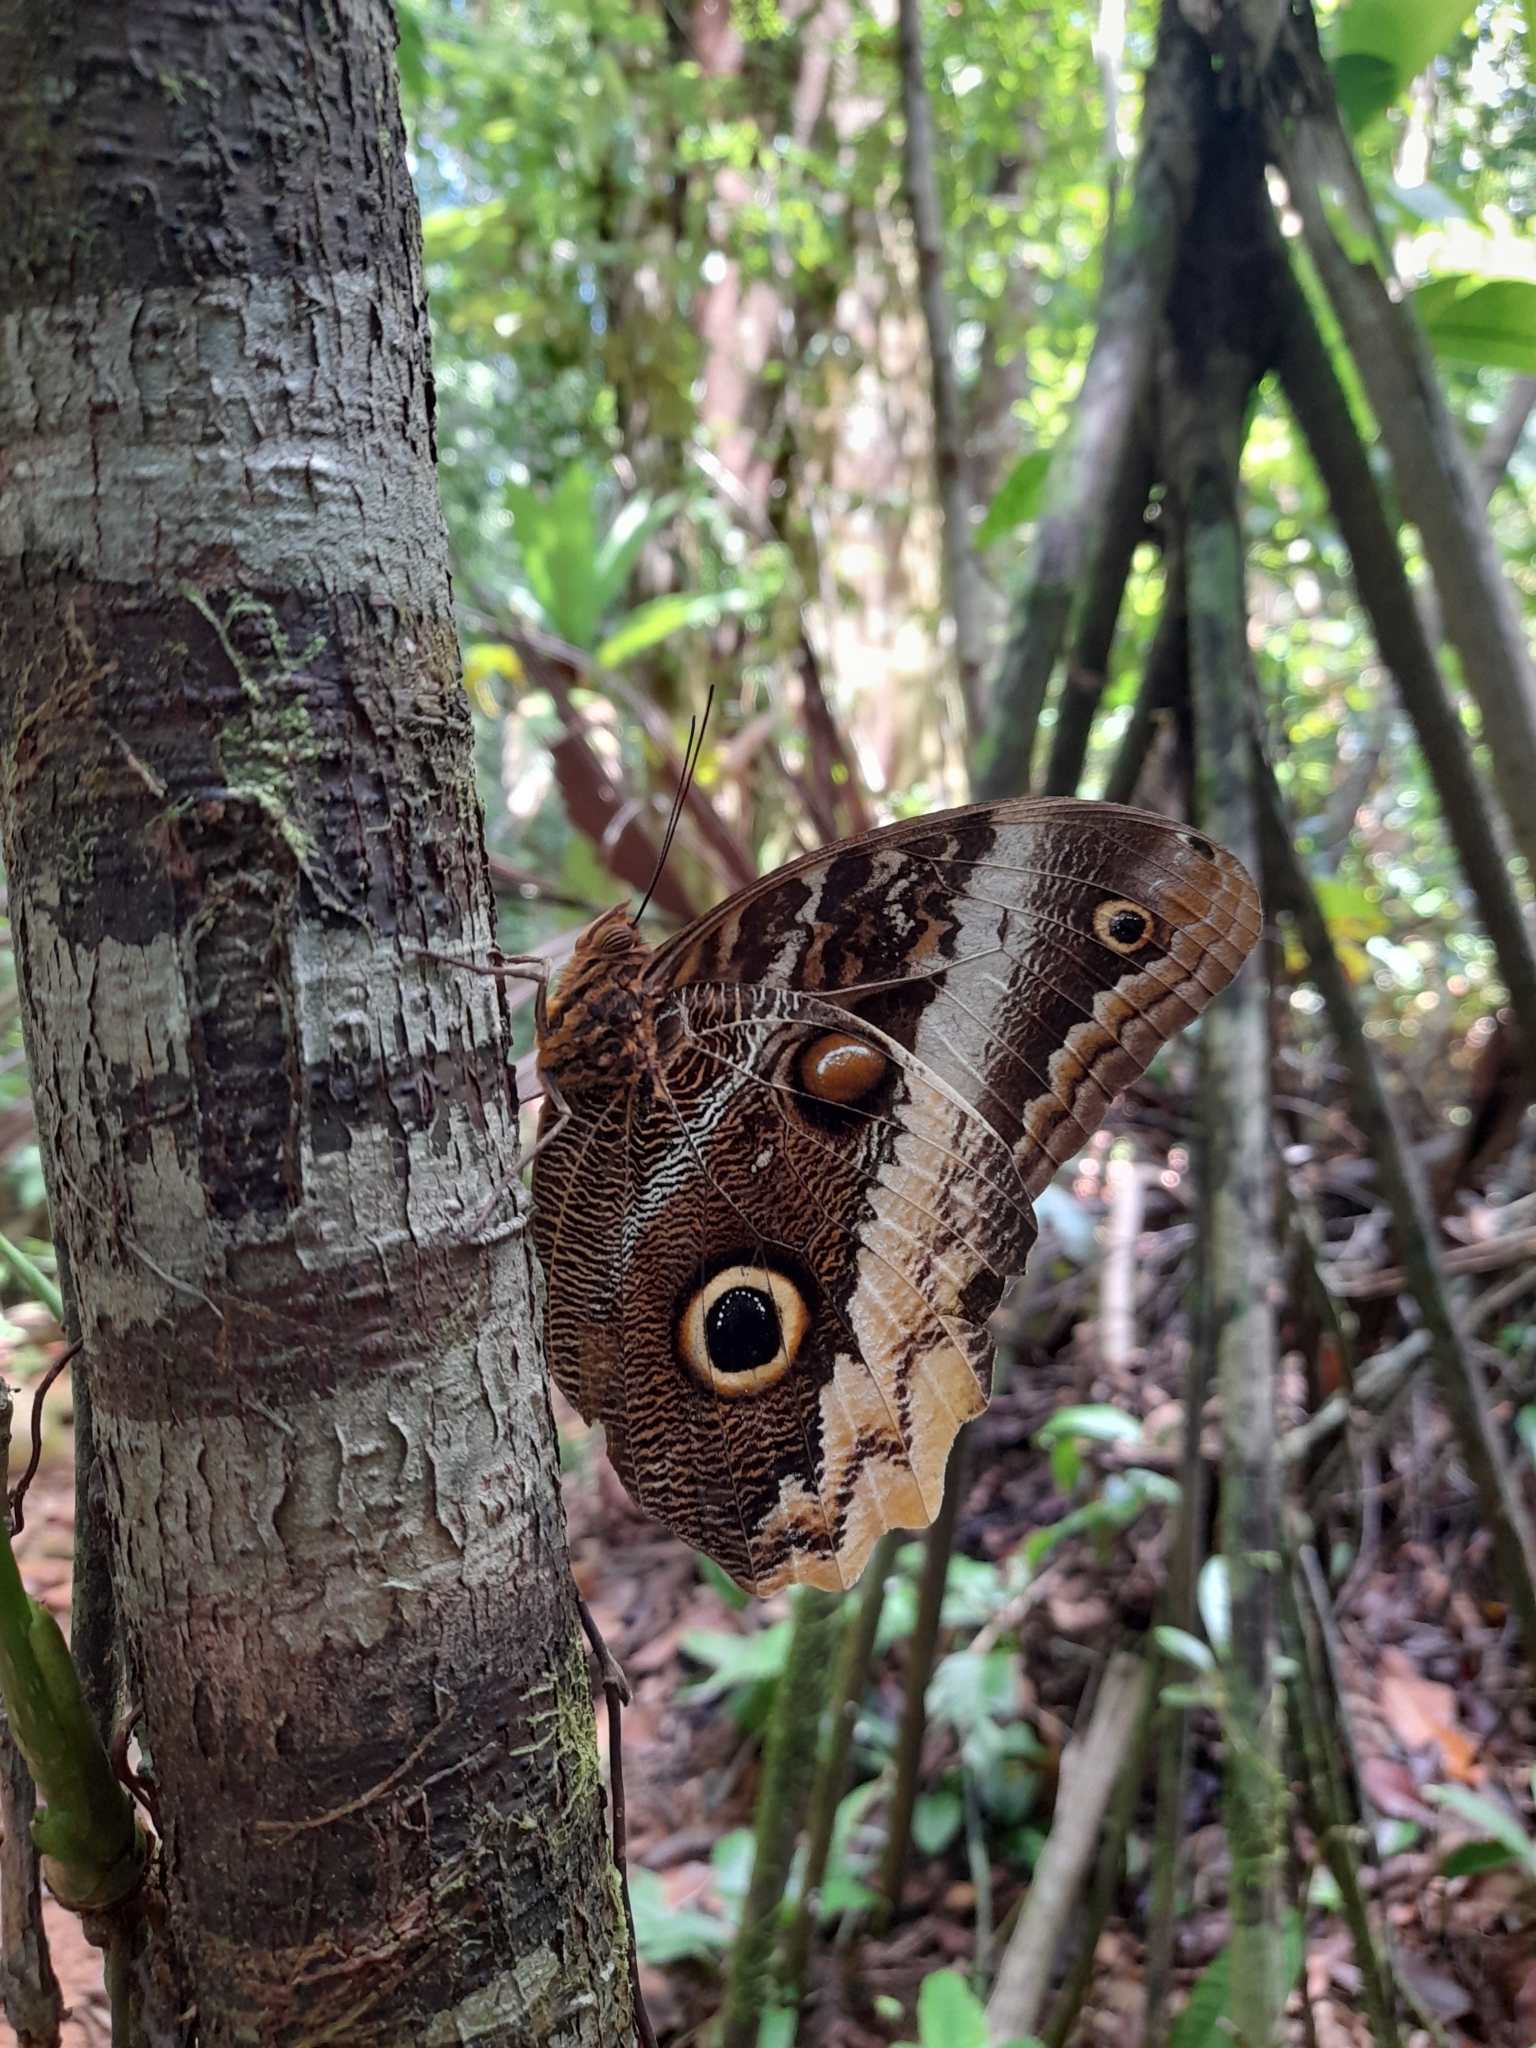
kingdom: Animalia
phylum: Arthropoda
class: Insecta
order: Lepidoptera
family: Nymphalidae
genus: Caligo
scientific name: Caligo atreus
